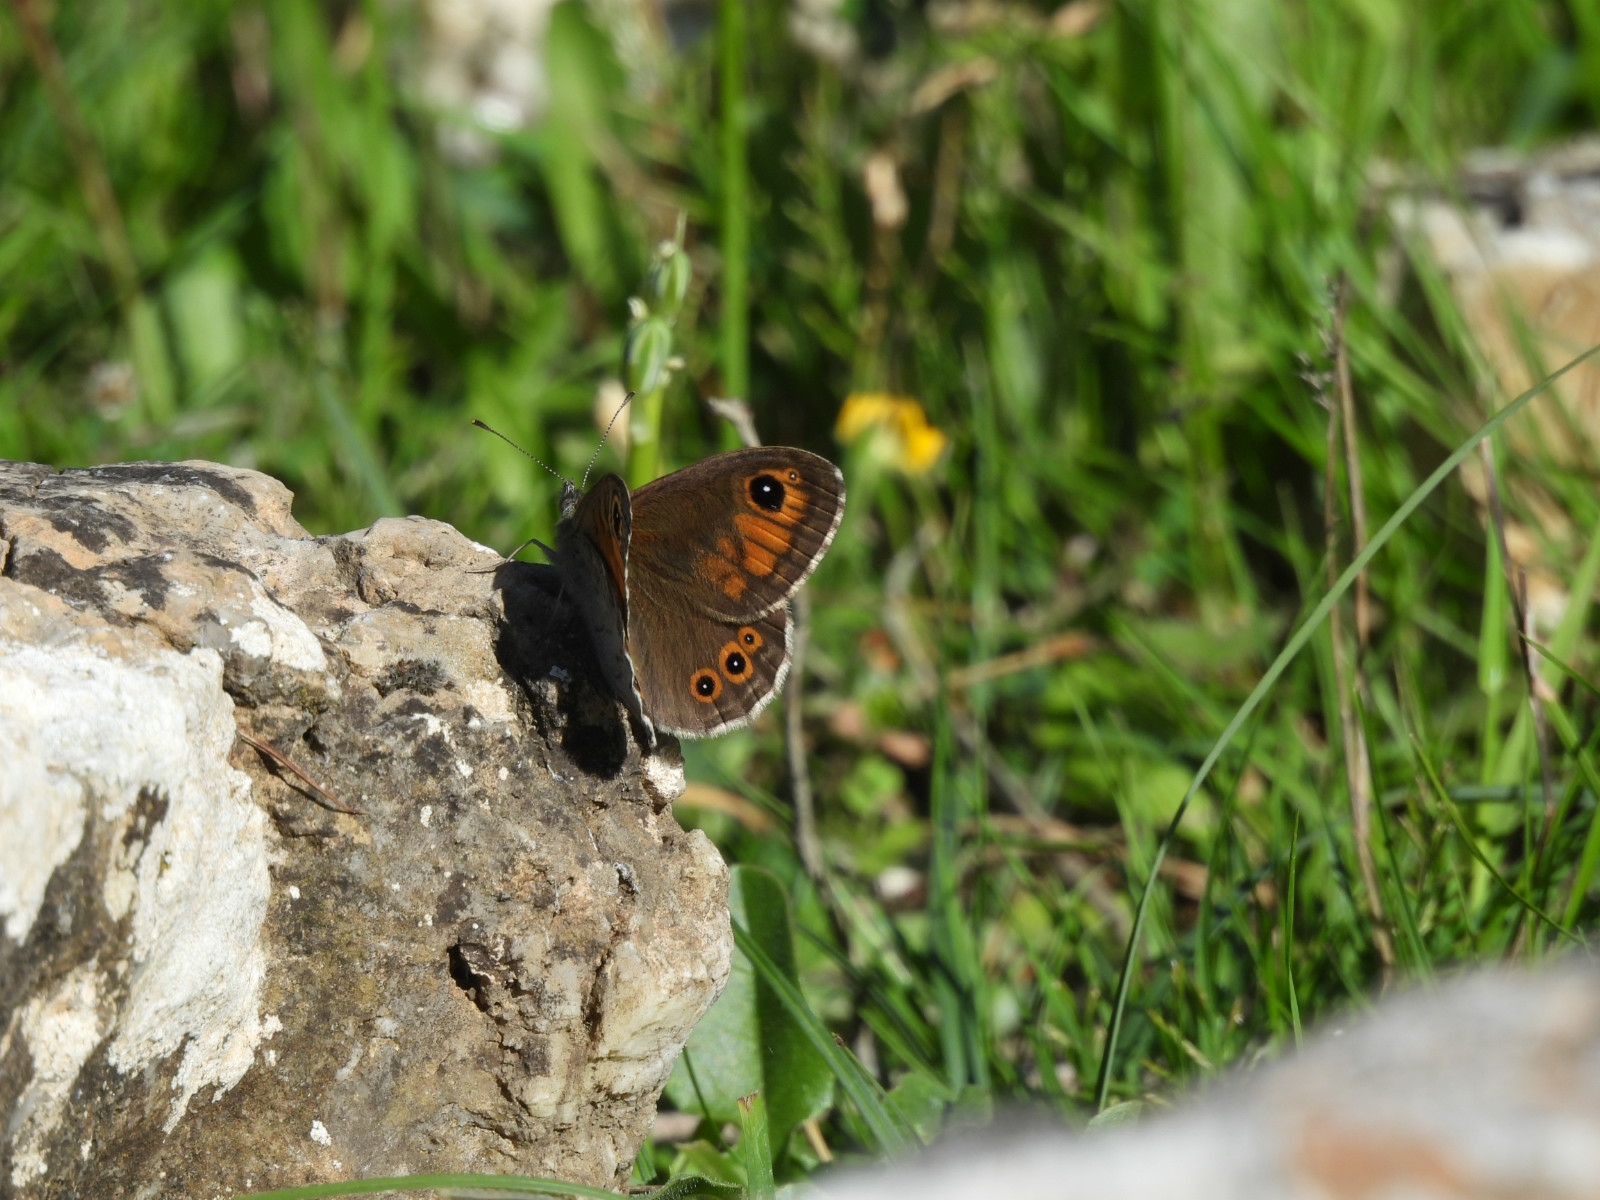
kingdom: Animalia
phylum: Arthropoda
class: Insecta
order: Lepidoptera
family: Nymphalidae
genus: Pararge
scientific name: Pararge Lasiommata maera
